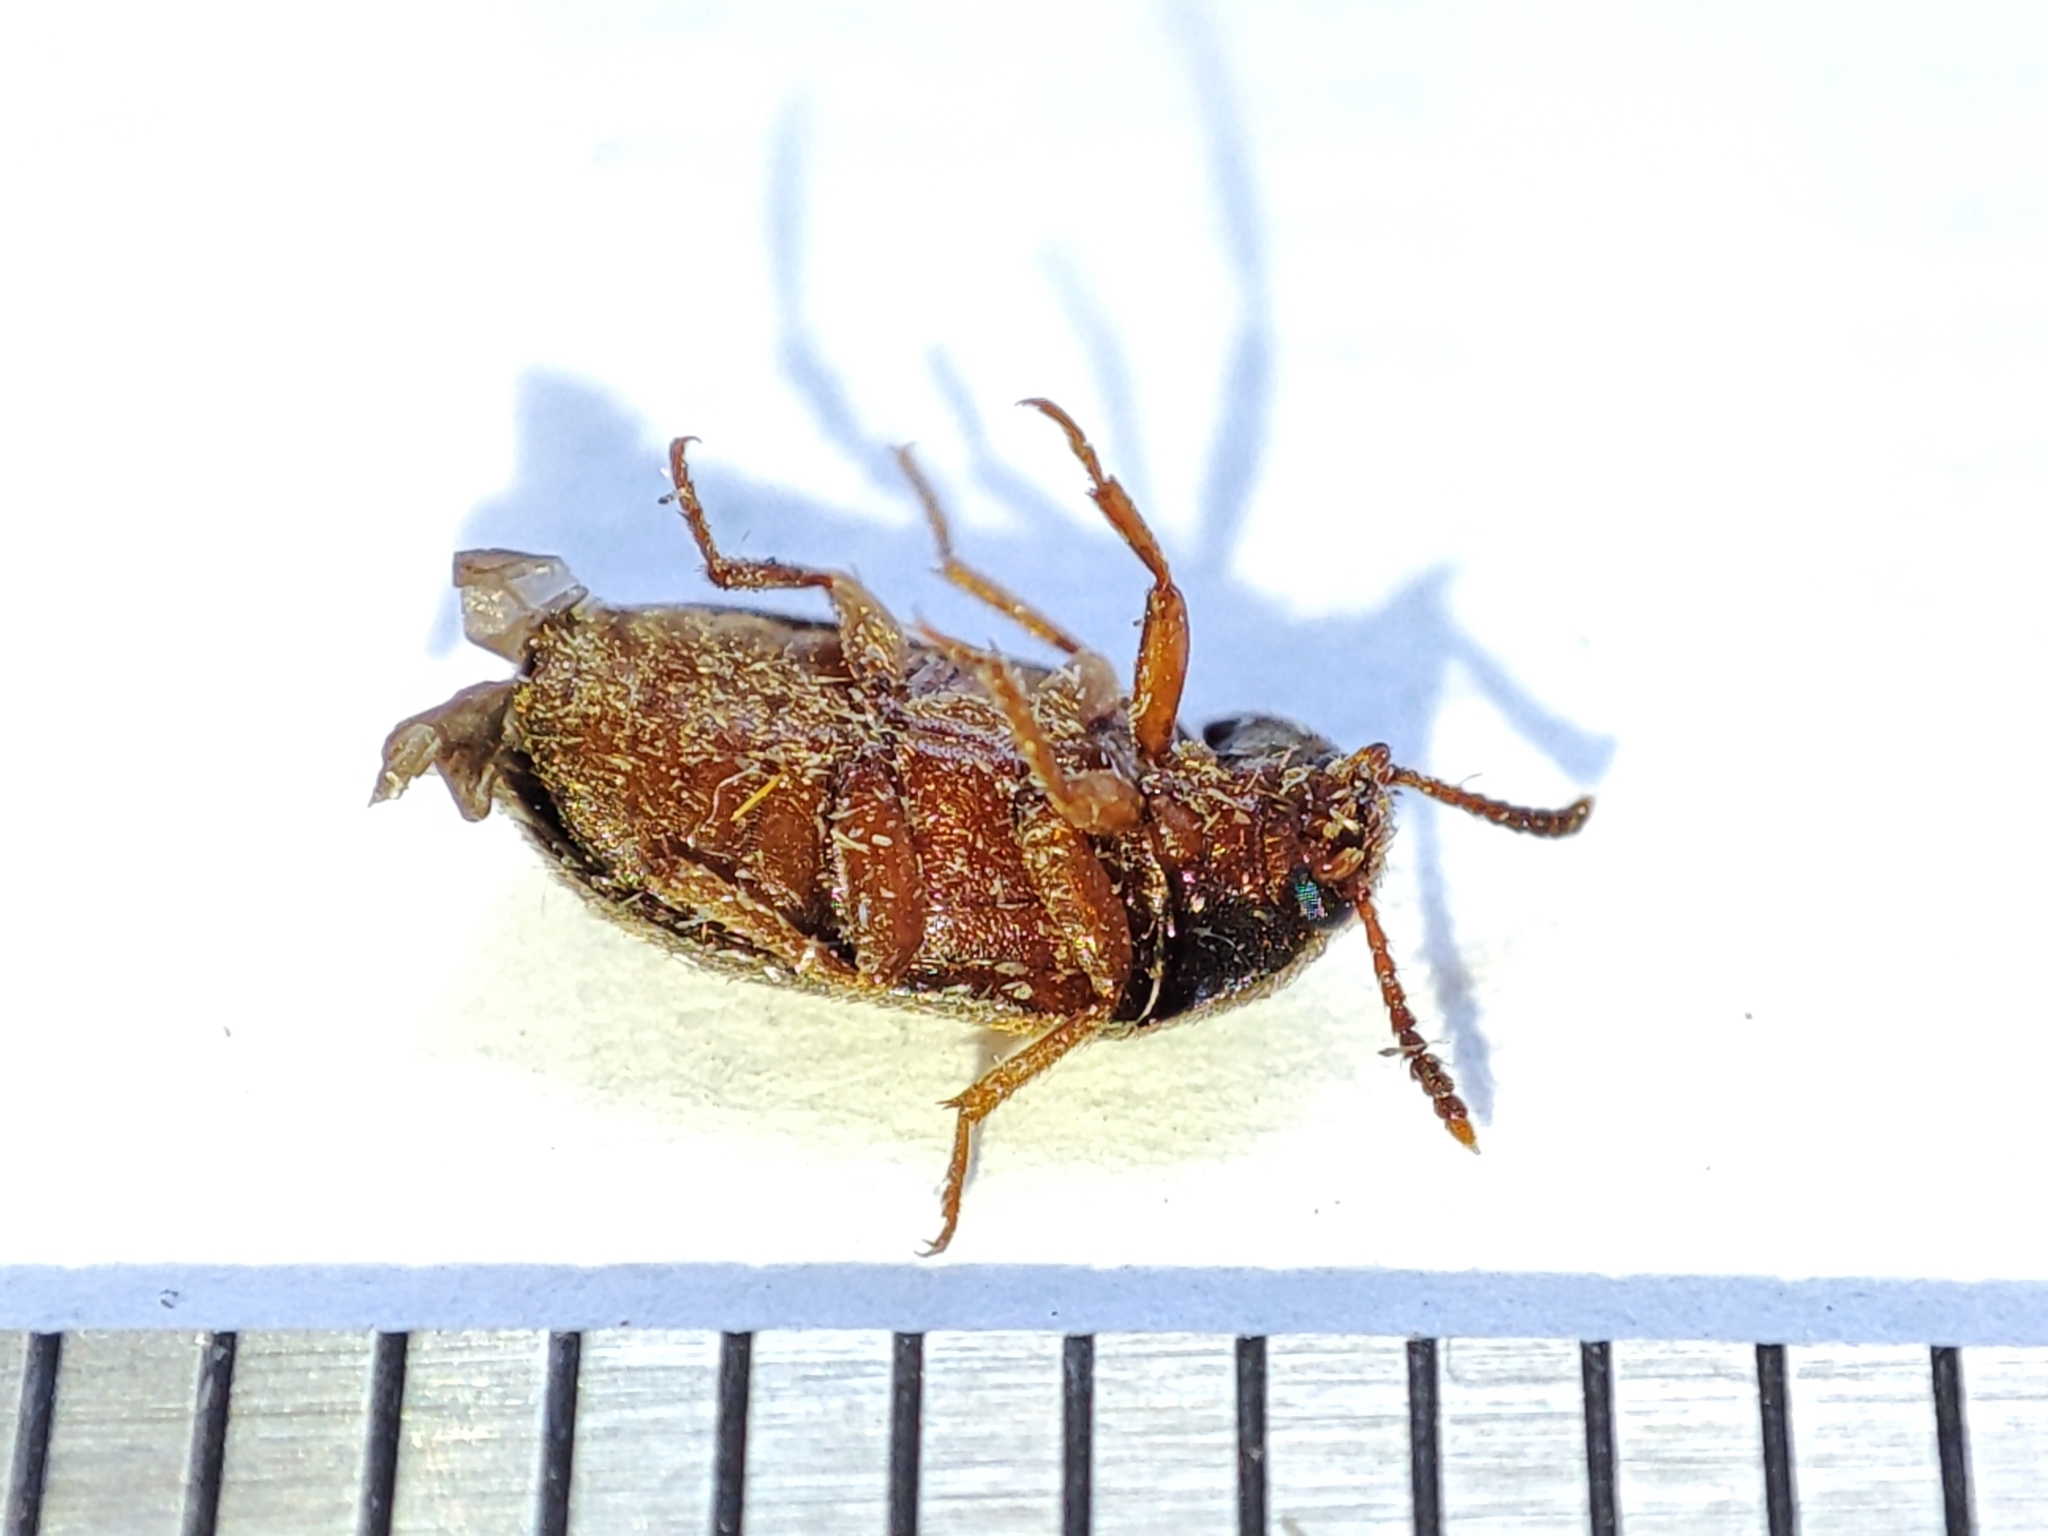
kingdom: Animalia
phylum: Arthropoda
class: Insecta
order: Coleoptera
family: Mycetophagidae
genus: Mycetophagus
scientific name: Mycetophagus quadripustulatus
